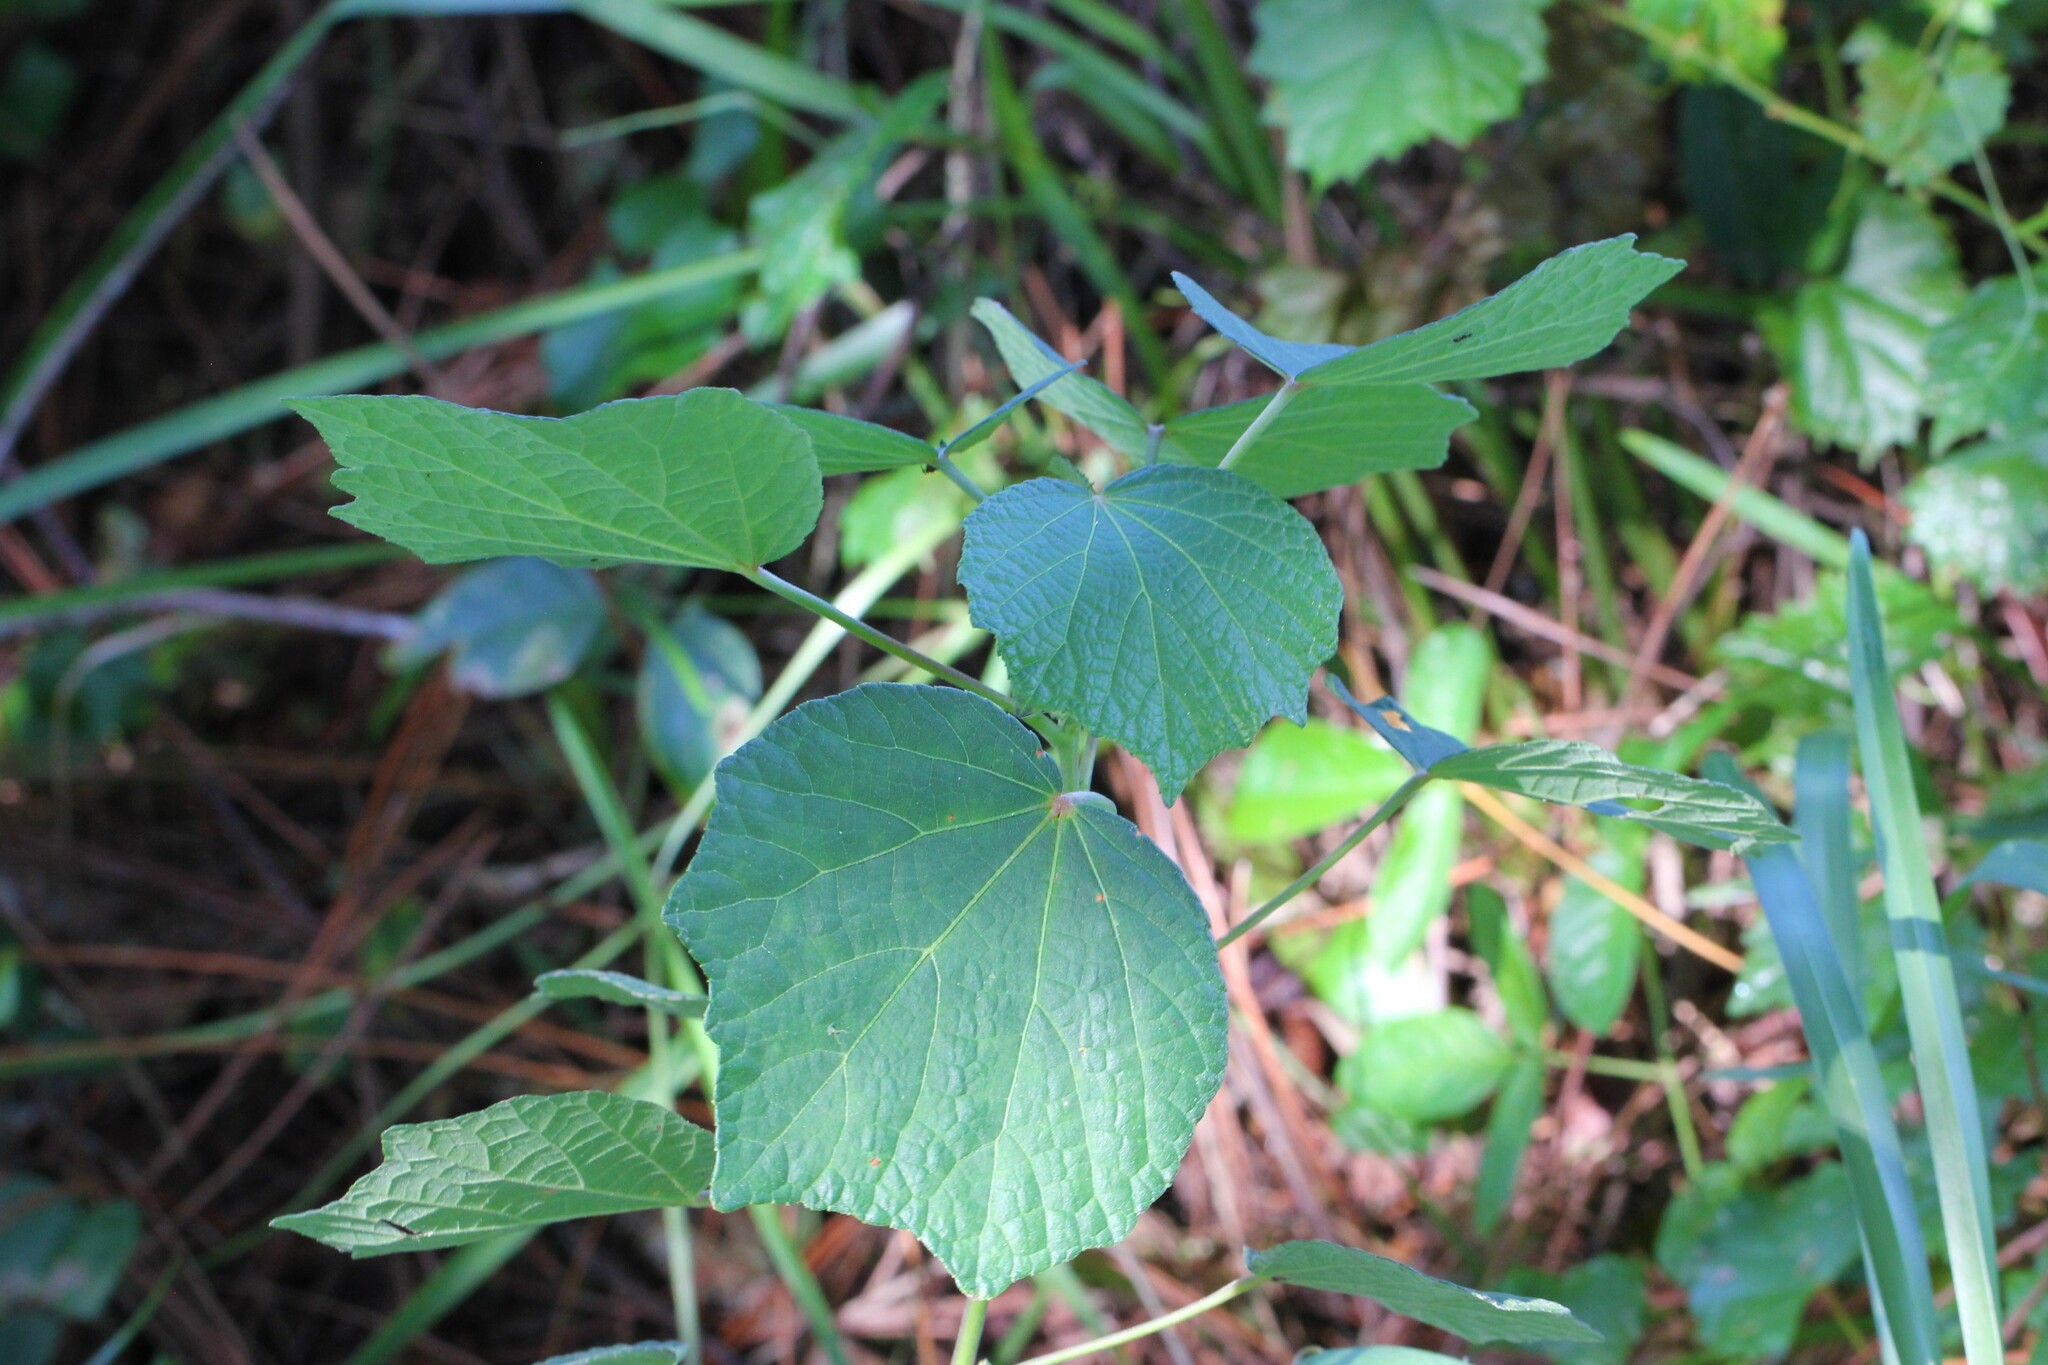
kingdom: Plantae
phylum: Tracheophyta
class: Magnoliopsida
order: Malvales
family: Malvaceae
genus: Urena
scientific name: Urena lobata
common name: Caesarweed
